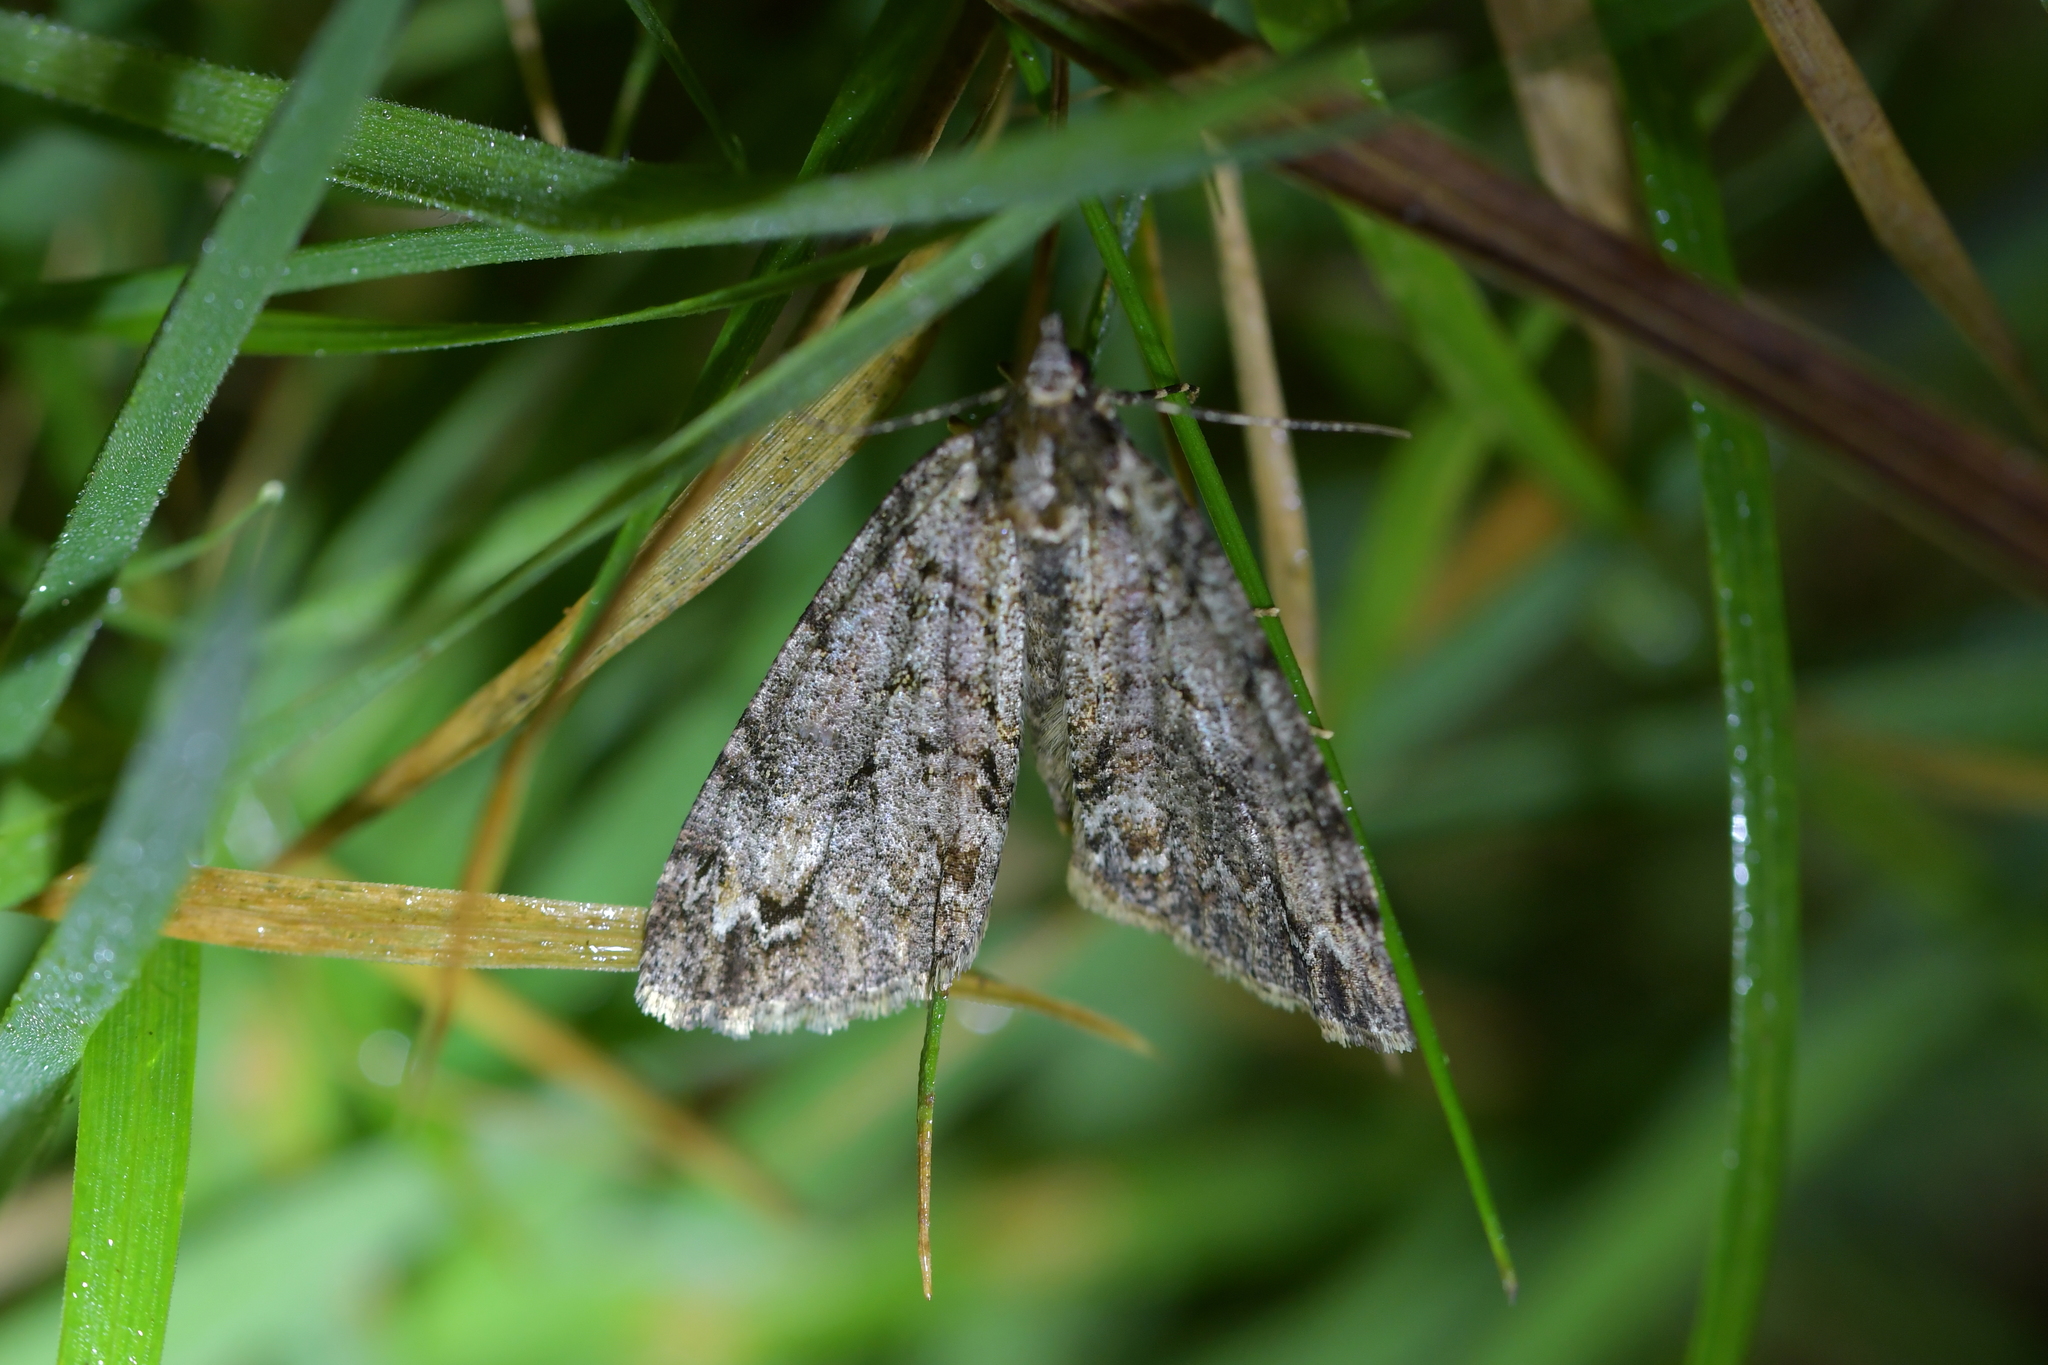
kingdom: Animalia
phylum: Arthropoda
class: Insecta
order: Lepidoptera
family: Geometridae
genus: Pseudocoremia
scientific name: Pseudocoremia suavis
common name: Common forest looper
